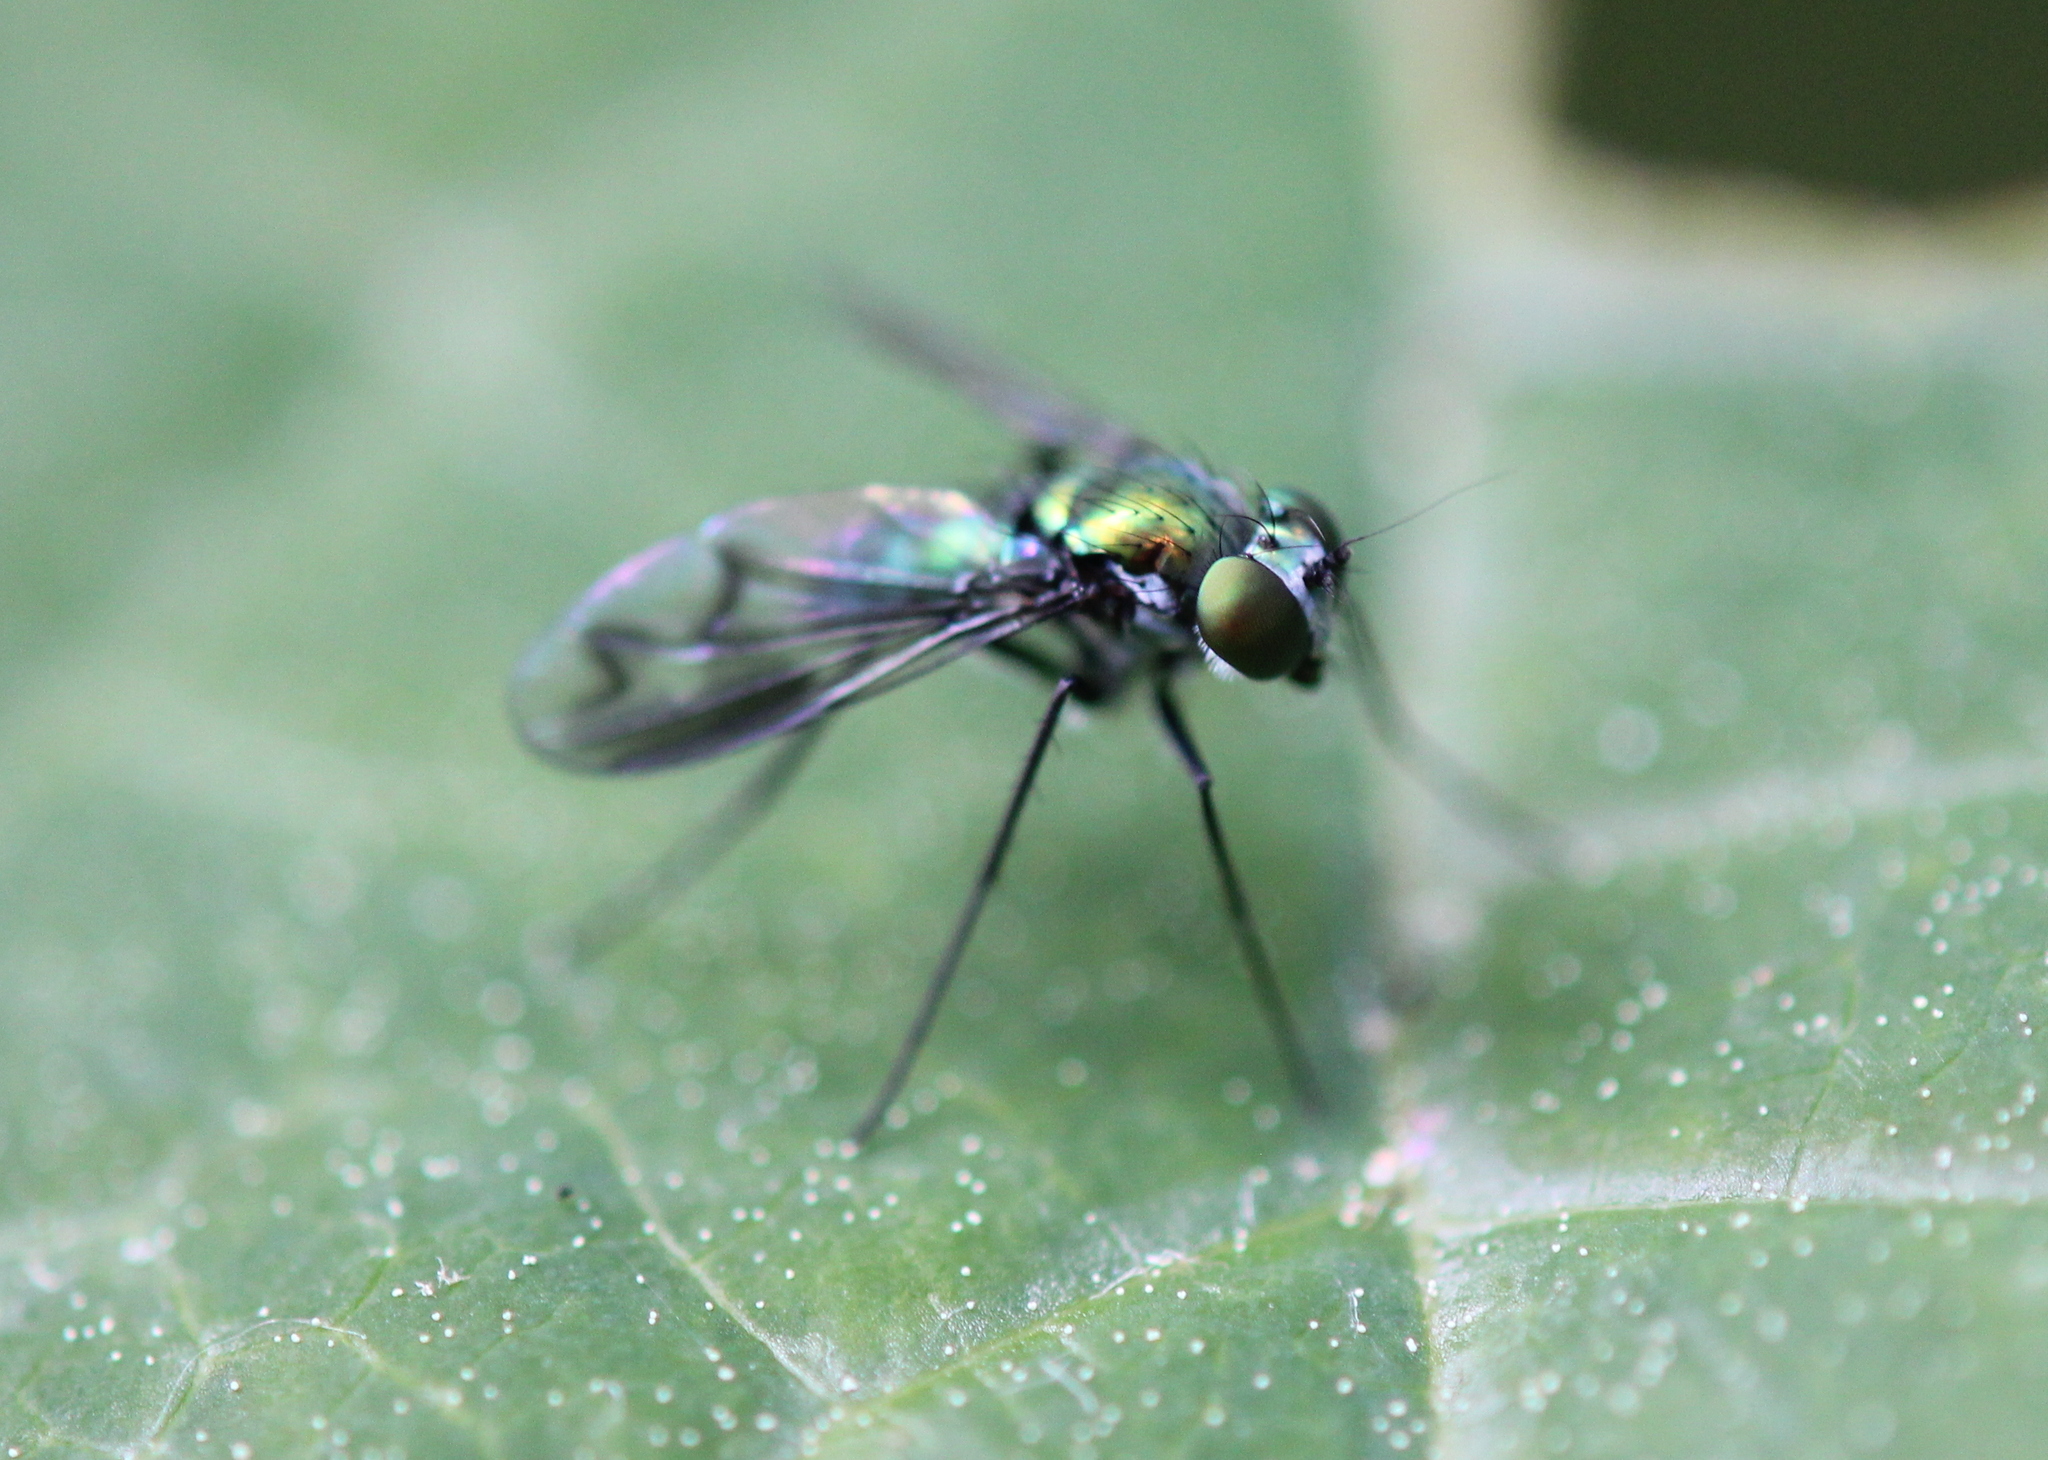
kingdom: Animalia
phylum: Arthropoda
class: Insecta
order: Diptera
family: Dolichopodidae
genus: Condylostylus
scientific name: Condylostylus patibulatus
